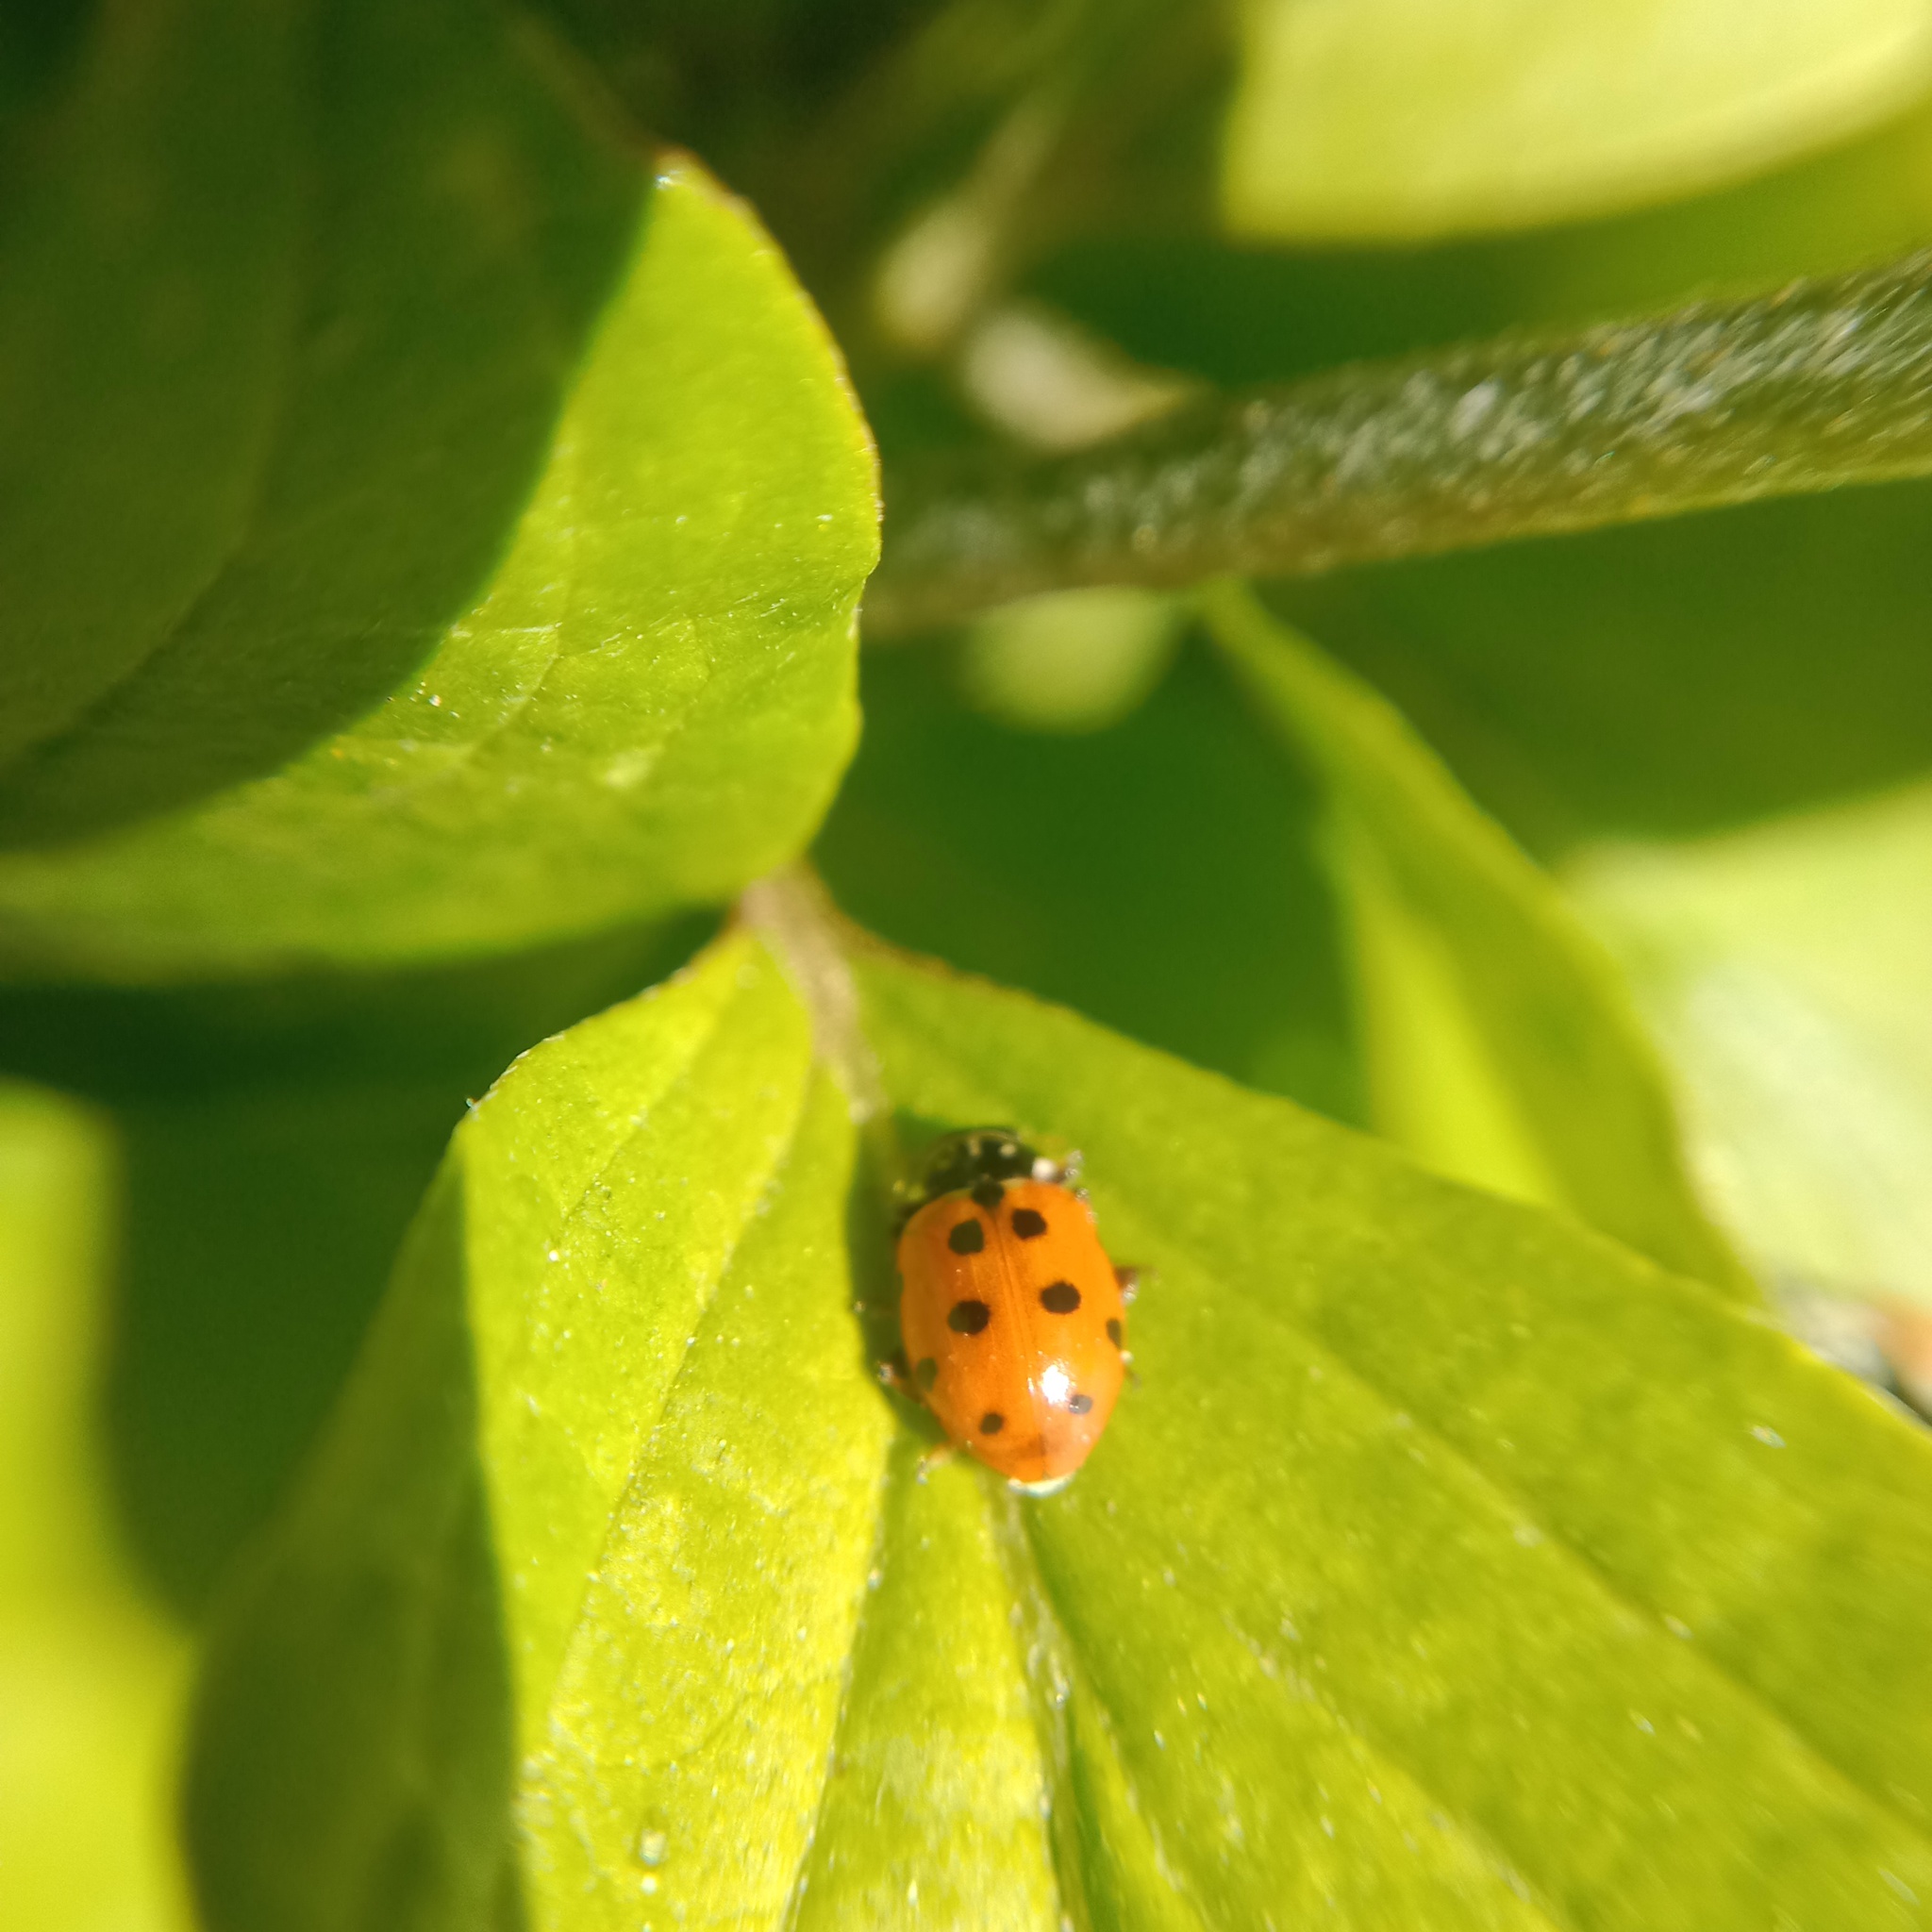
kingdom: Animalia
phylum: Arthropoda
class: Insecta
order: Coleoptera
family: Coccinellidae
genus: Hippodamia
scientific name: Hippodamia variegata
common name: Ladybird beetle
